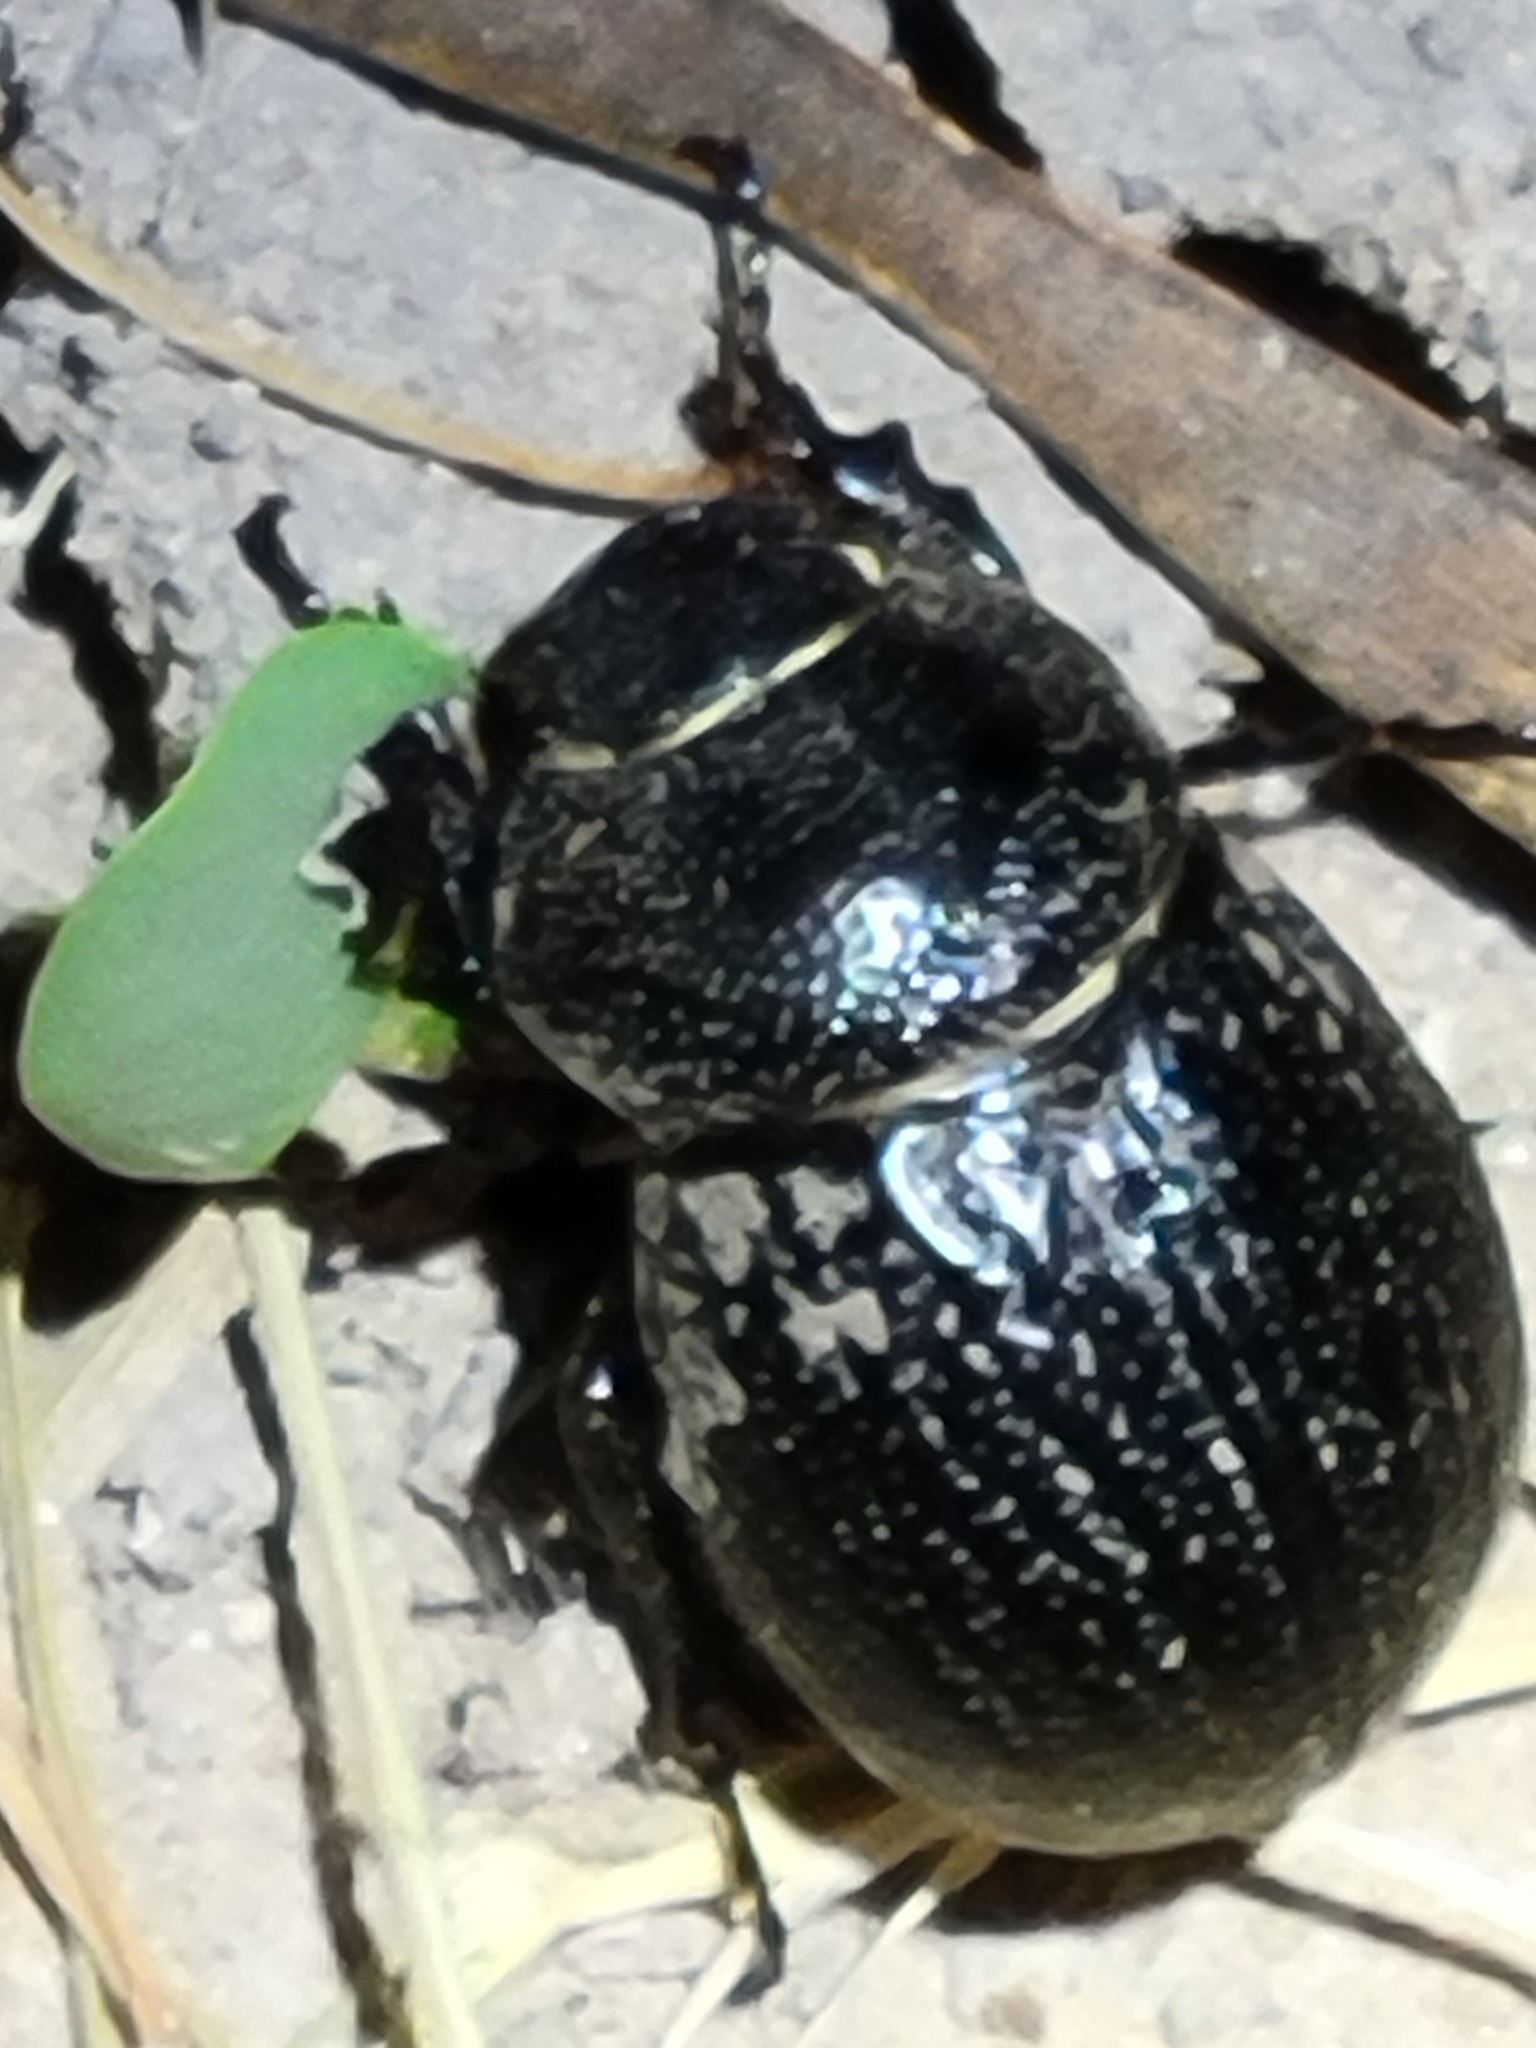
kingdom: Animalia
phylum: Arthropoda
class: Insecta
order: Coleoptera
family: Scarabaeidae
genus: Phyllophaga
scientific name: Phyllophaga cribrosa
